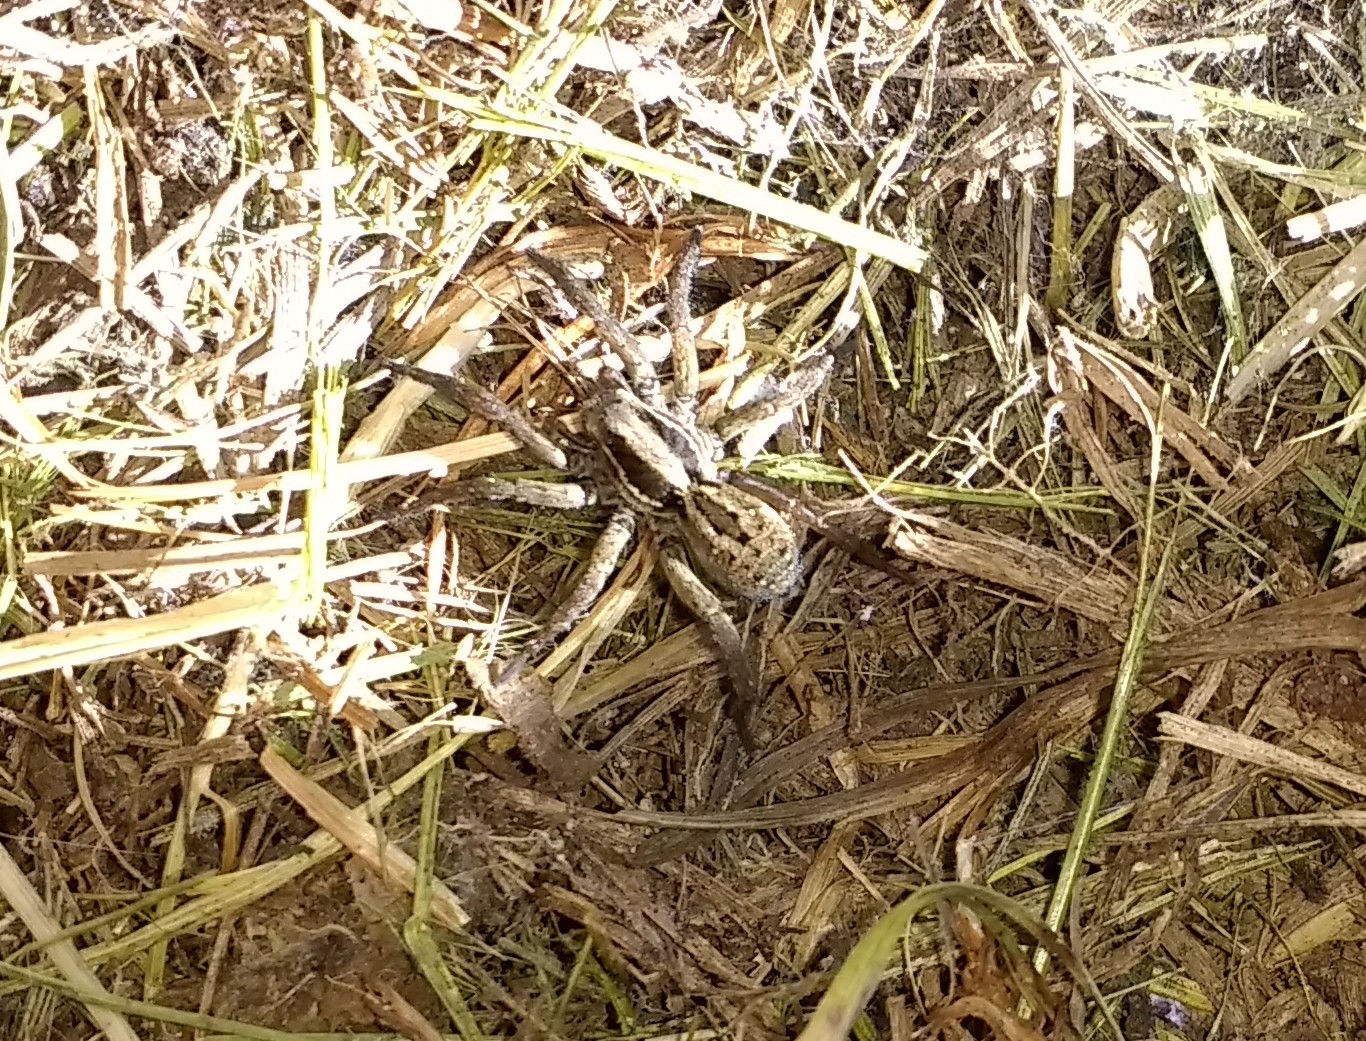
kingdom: Animalia
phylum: Arthropoda
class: Arachnida
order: Araneae
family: Lycosidae
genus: Alopecosa
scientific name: Alopecosa nigricans
